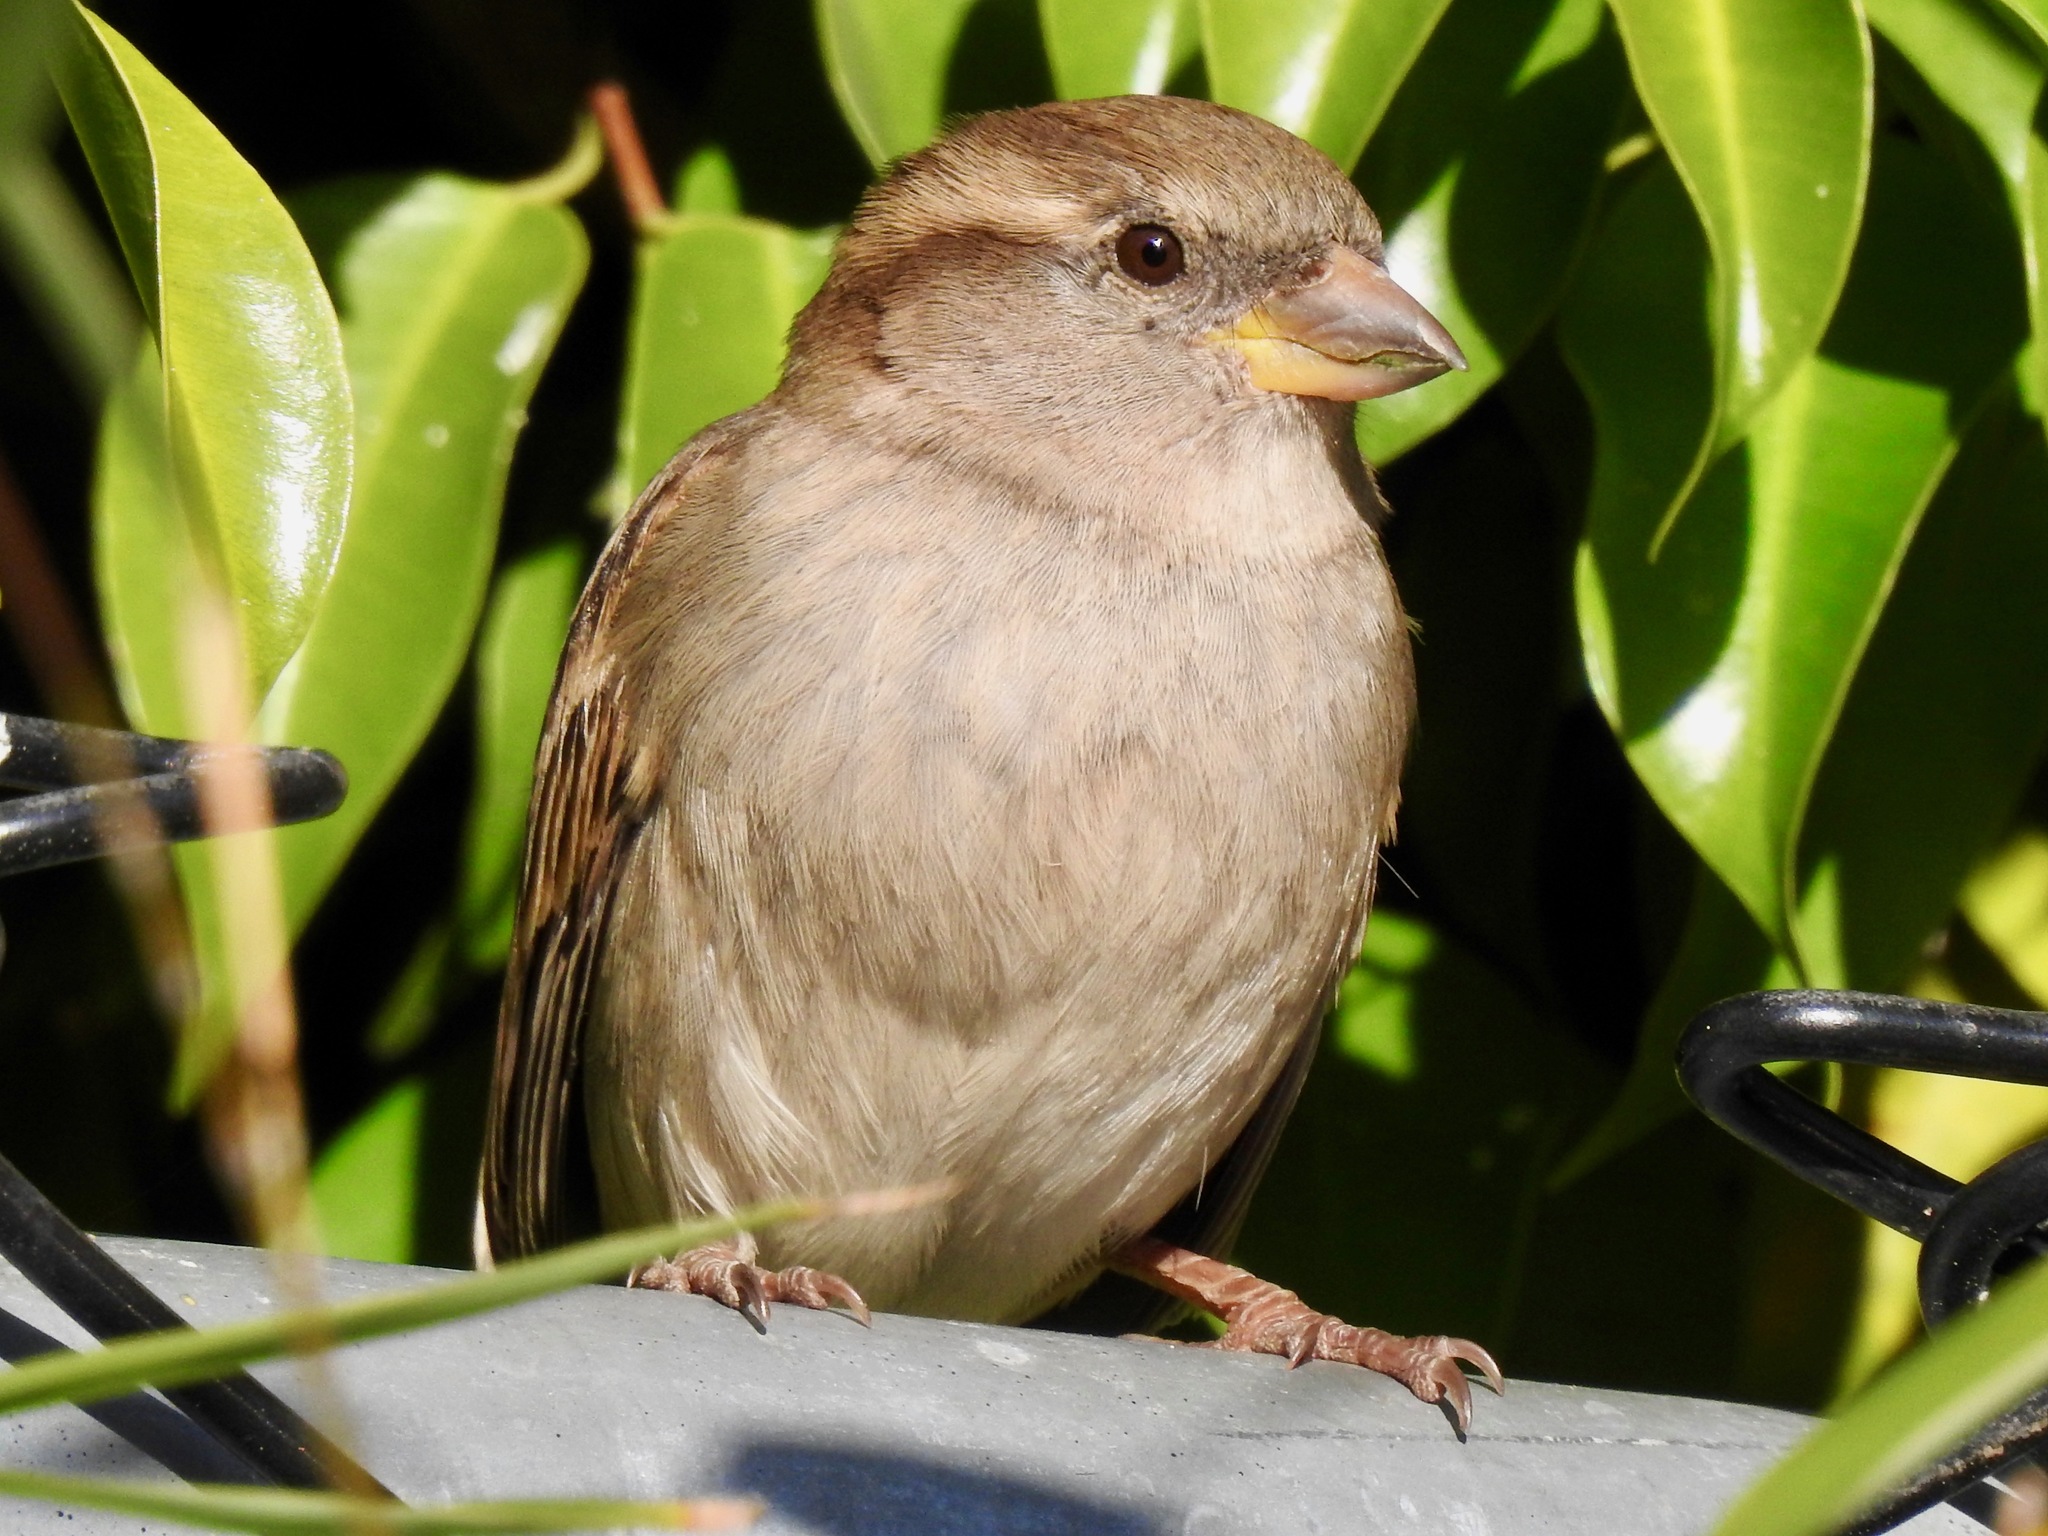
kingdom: Animalia
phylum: Chordata
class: Aves
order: Passeriformes
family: Passeridae
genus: Passer
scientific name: Passer domesticus
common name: House sparrow
